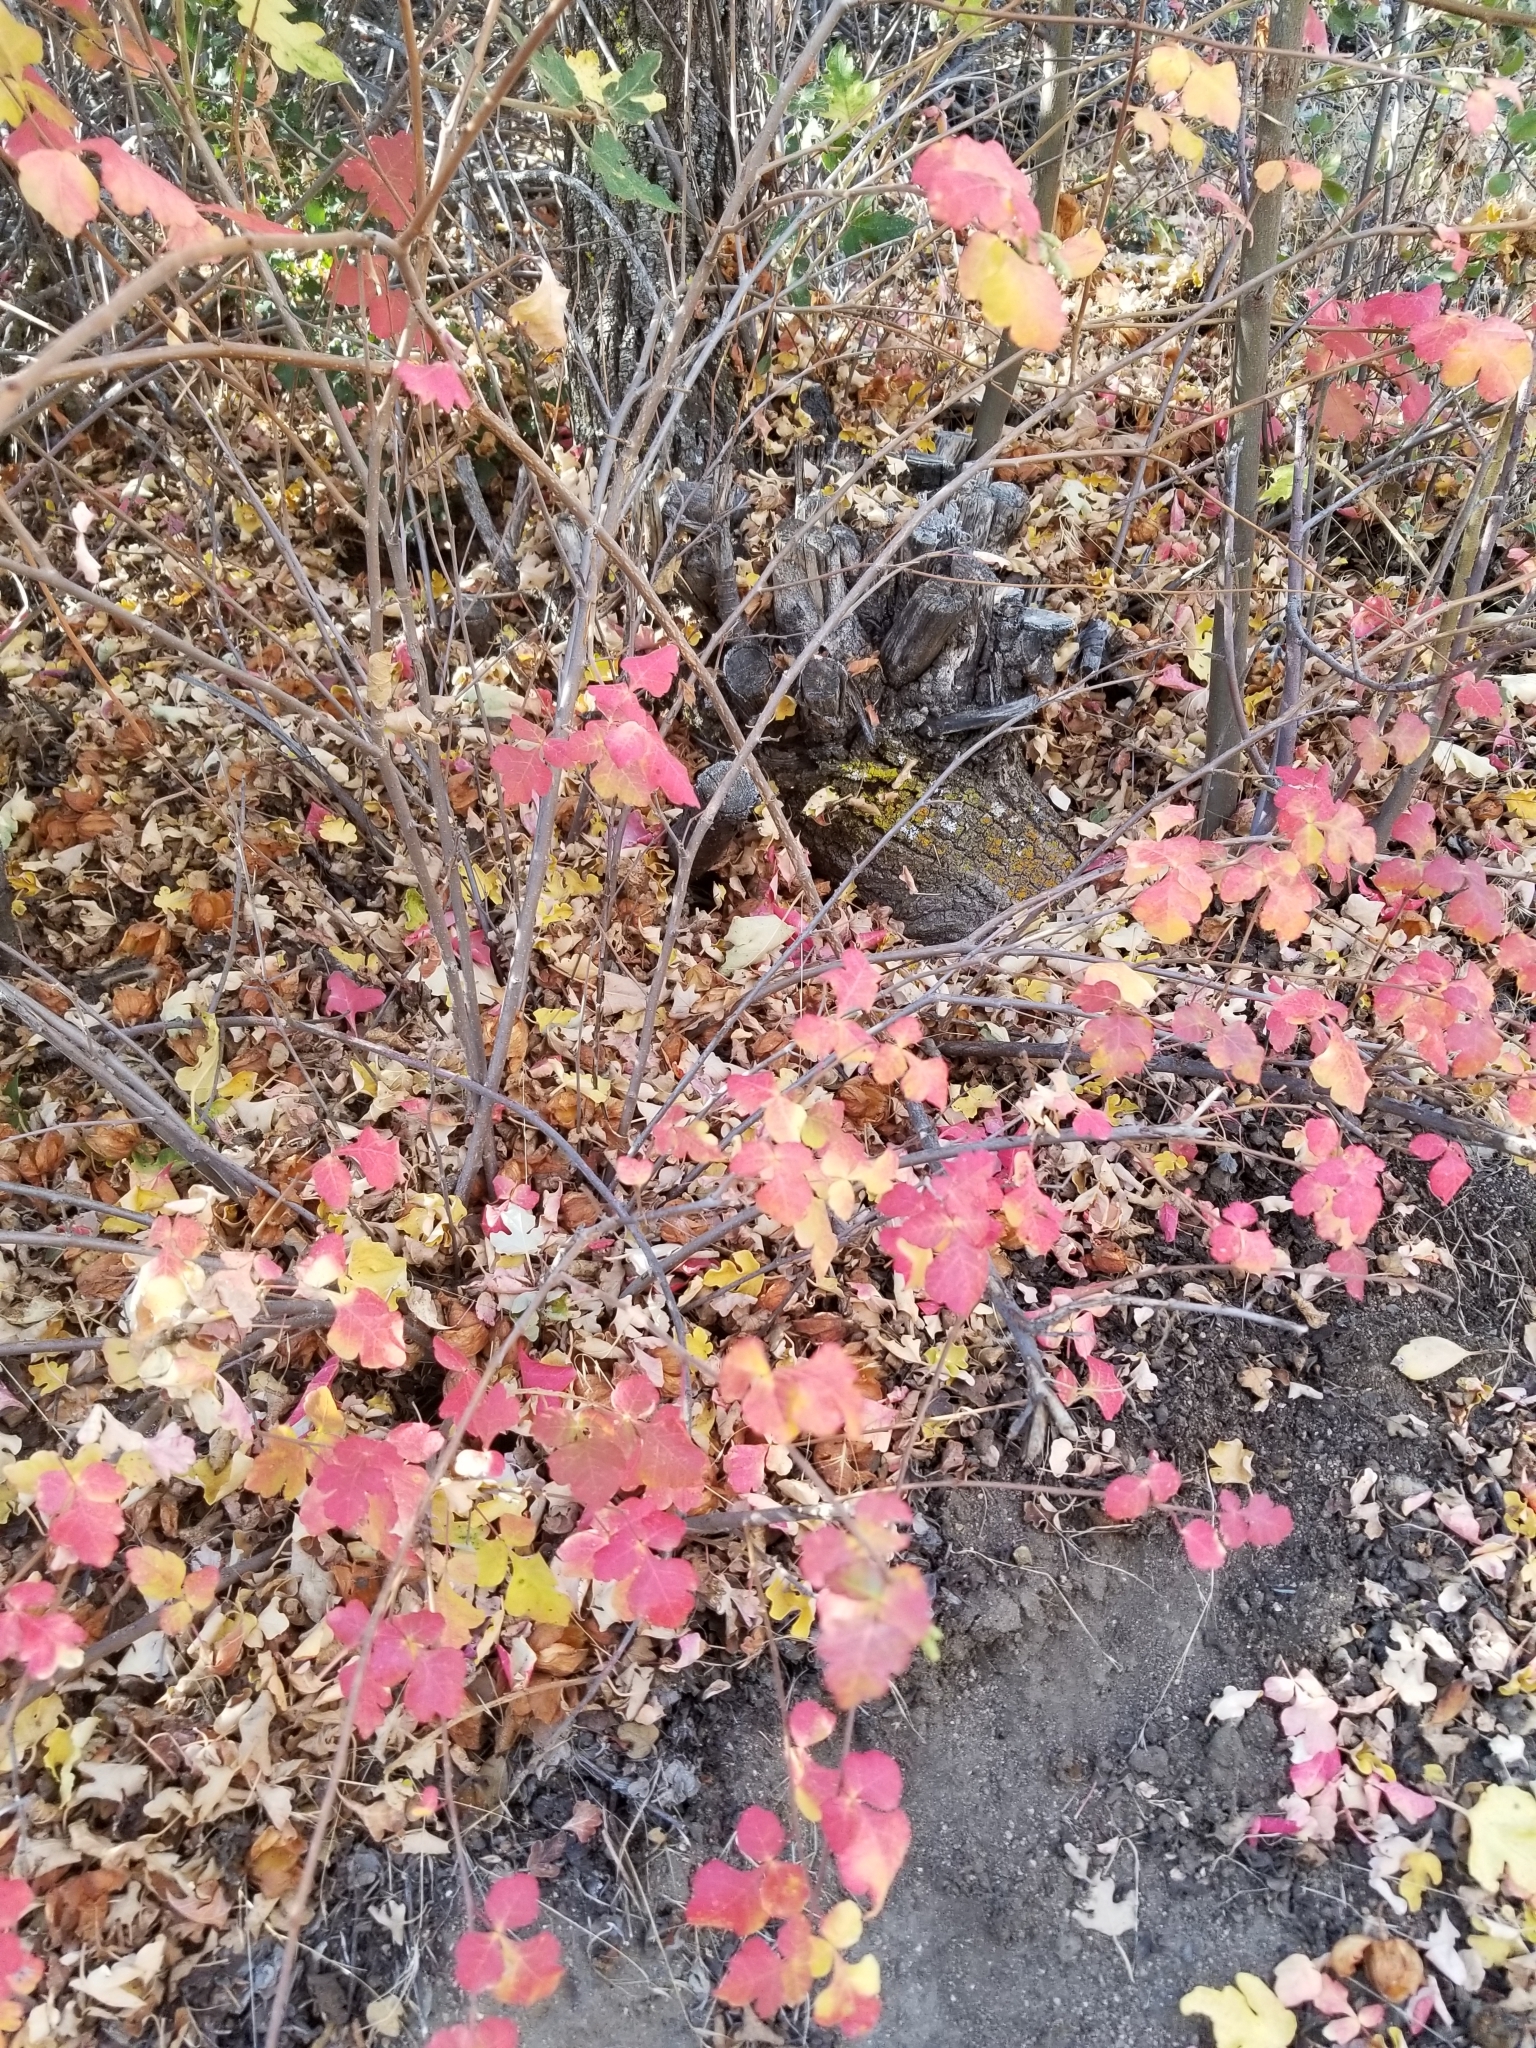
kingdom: Plantae
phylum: Tracheophyta
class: Magnoliopsida
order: Sapindales
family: Anacardiaceae
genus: Rhus
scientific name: Rhus aromatica
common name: Aromatic sumac
